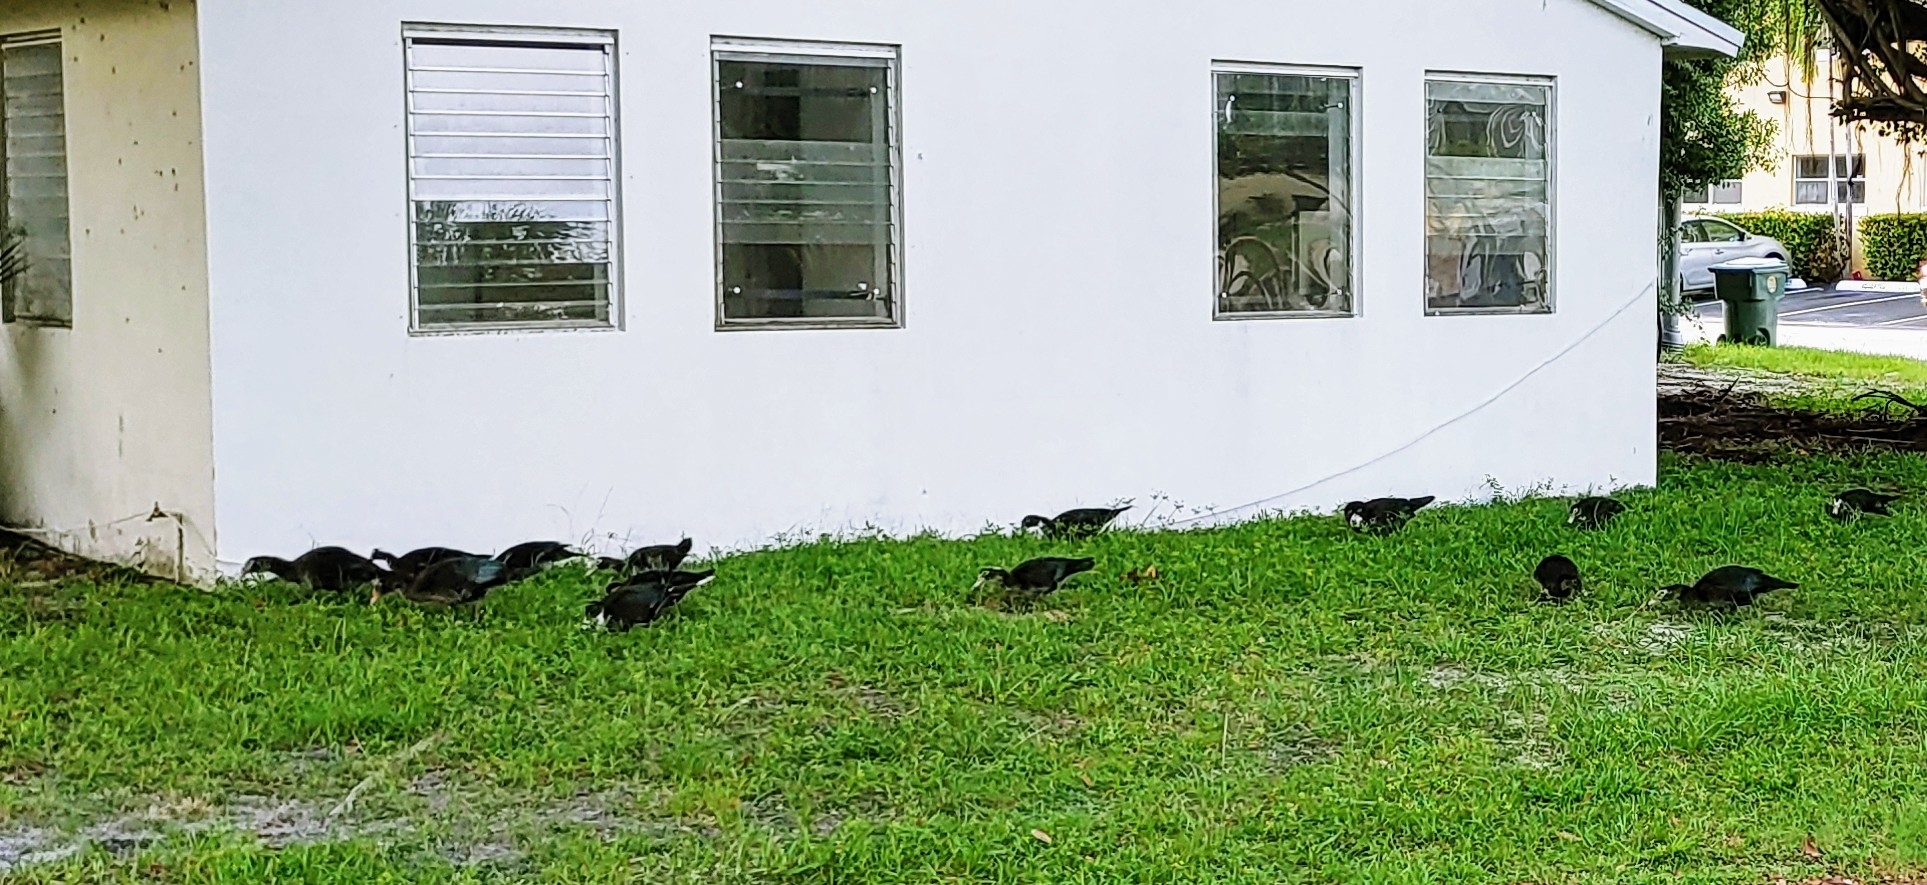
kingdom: Animalia
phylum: Chordata
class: Aves
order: Anseriformes
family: Anatidae
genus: Cairina
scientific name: Cairina moschata
